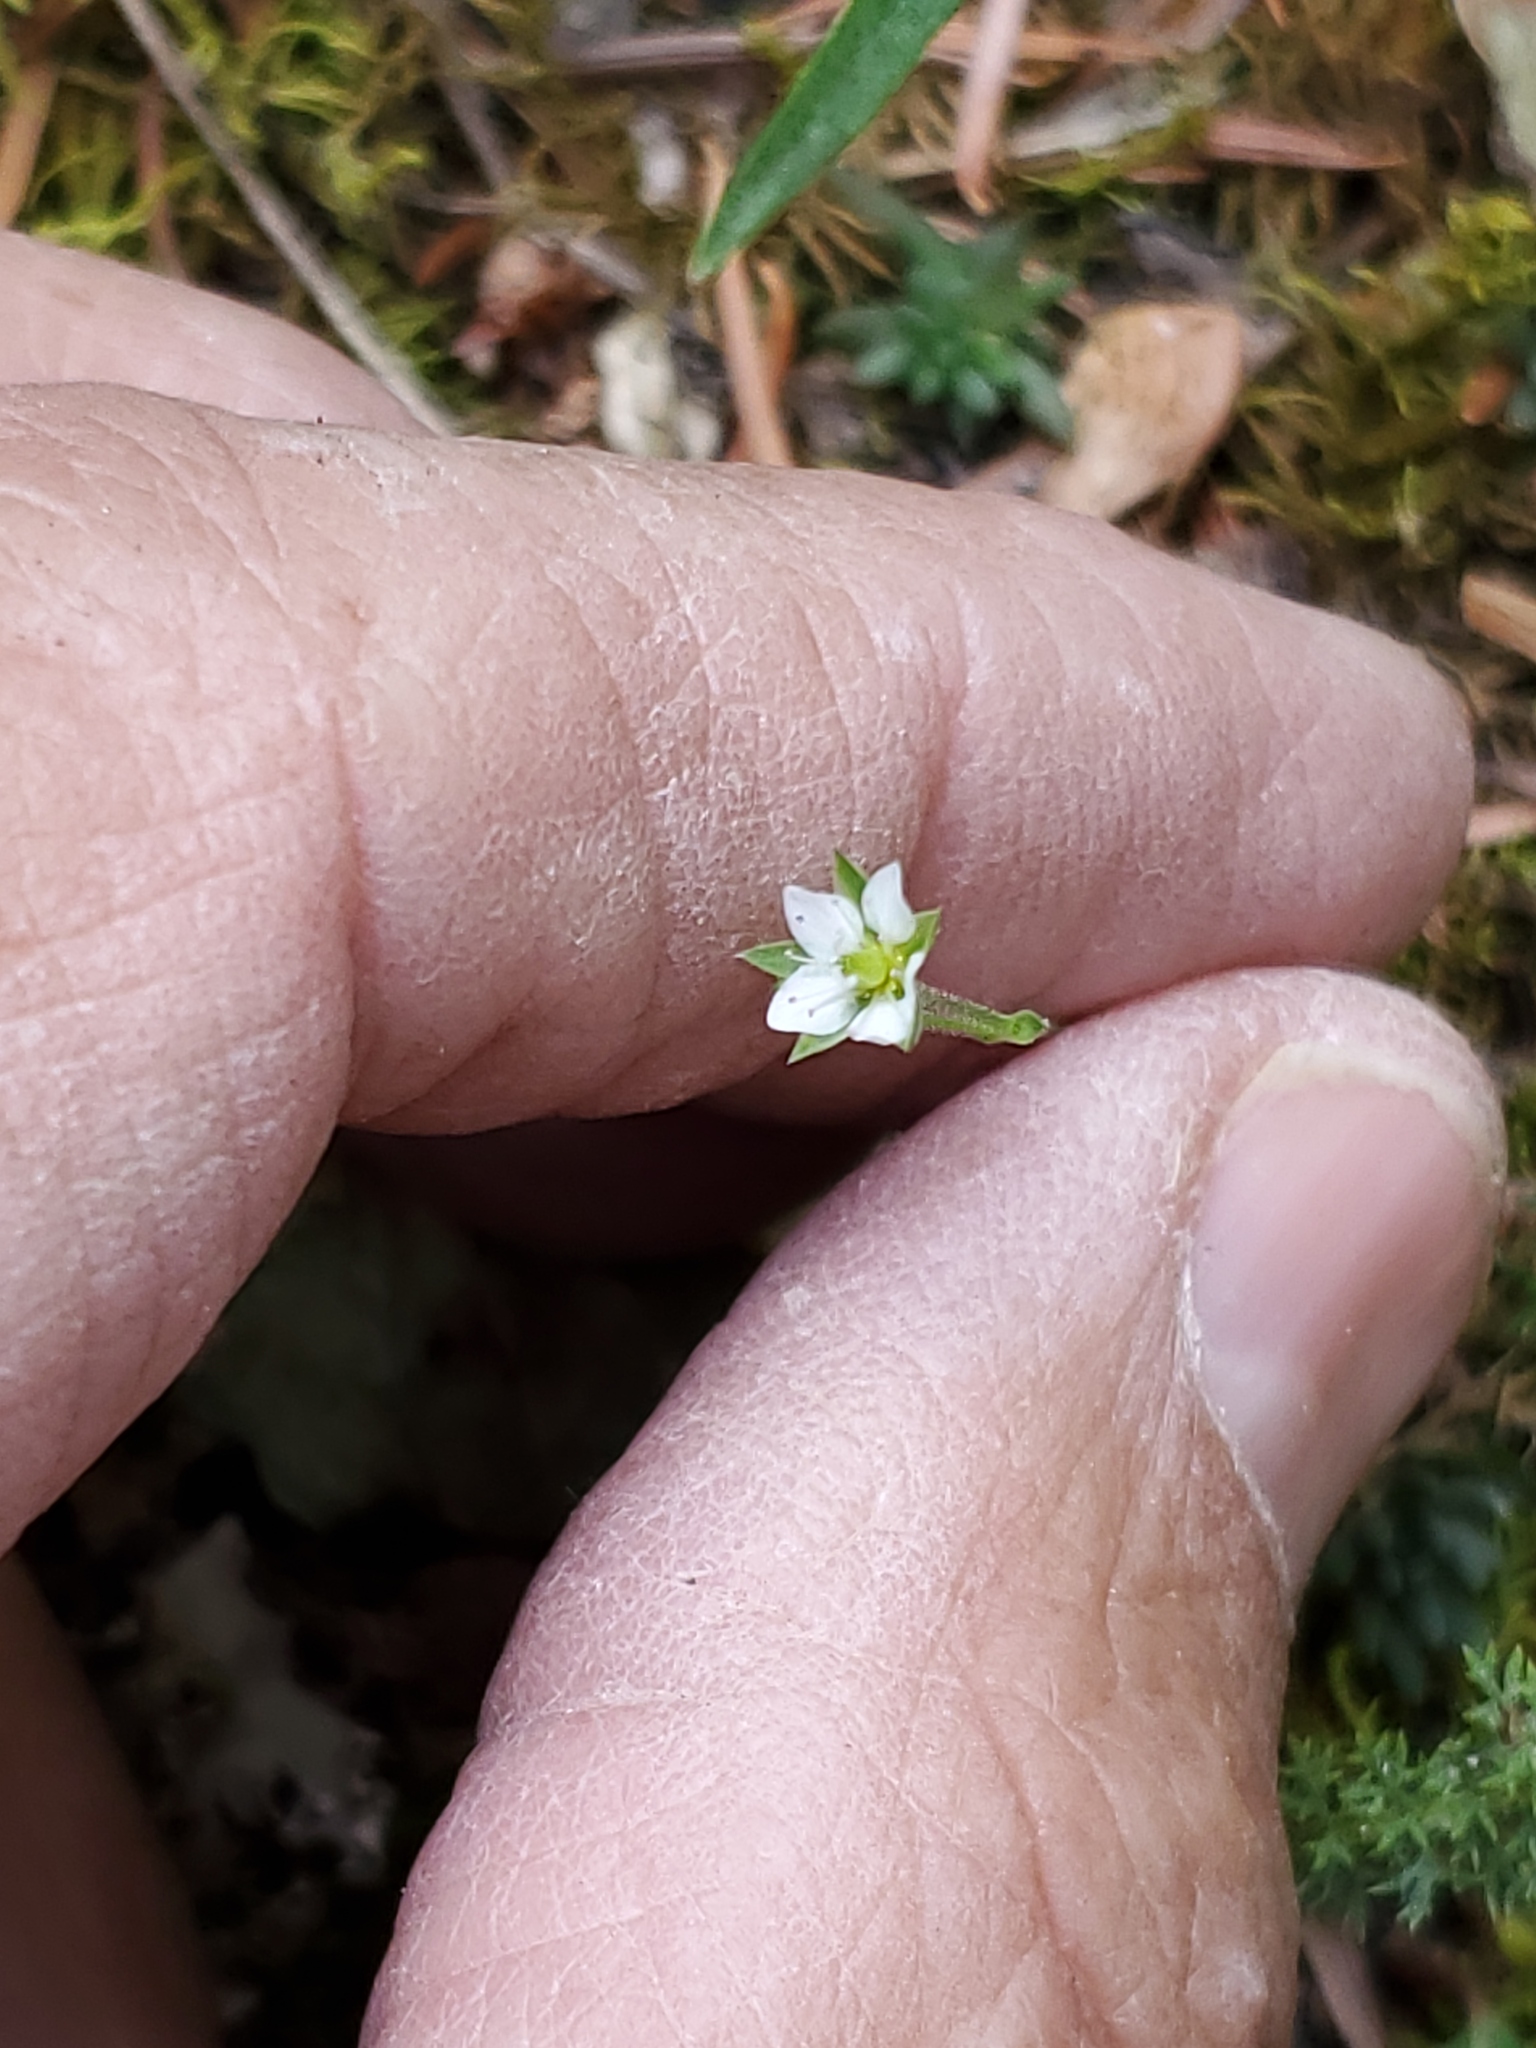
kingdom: Plantae
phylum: Tracheophyta
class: Magnoliopsida
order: Caryophyllales
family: Caryophyllaceae
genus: Arenaria
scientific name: Arenaria serpyllifolia
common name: Thyme-leaved sandwort
